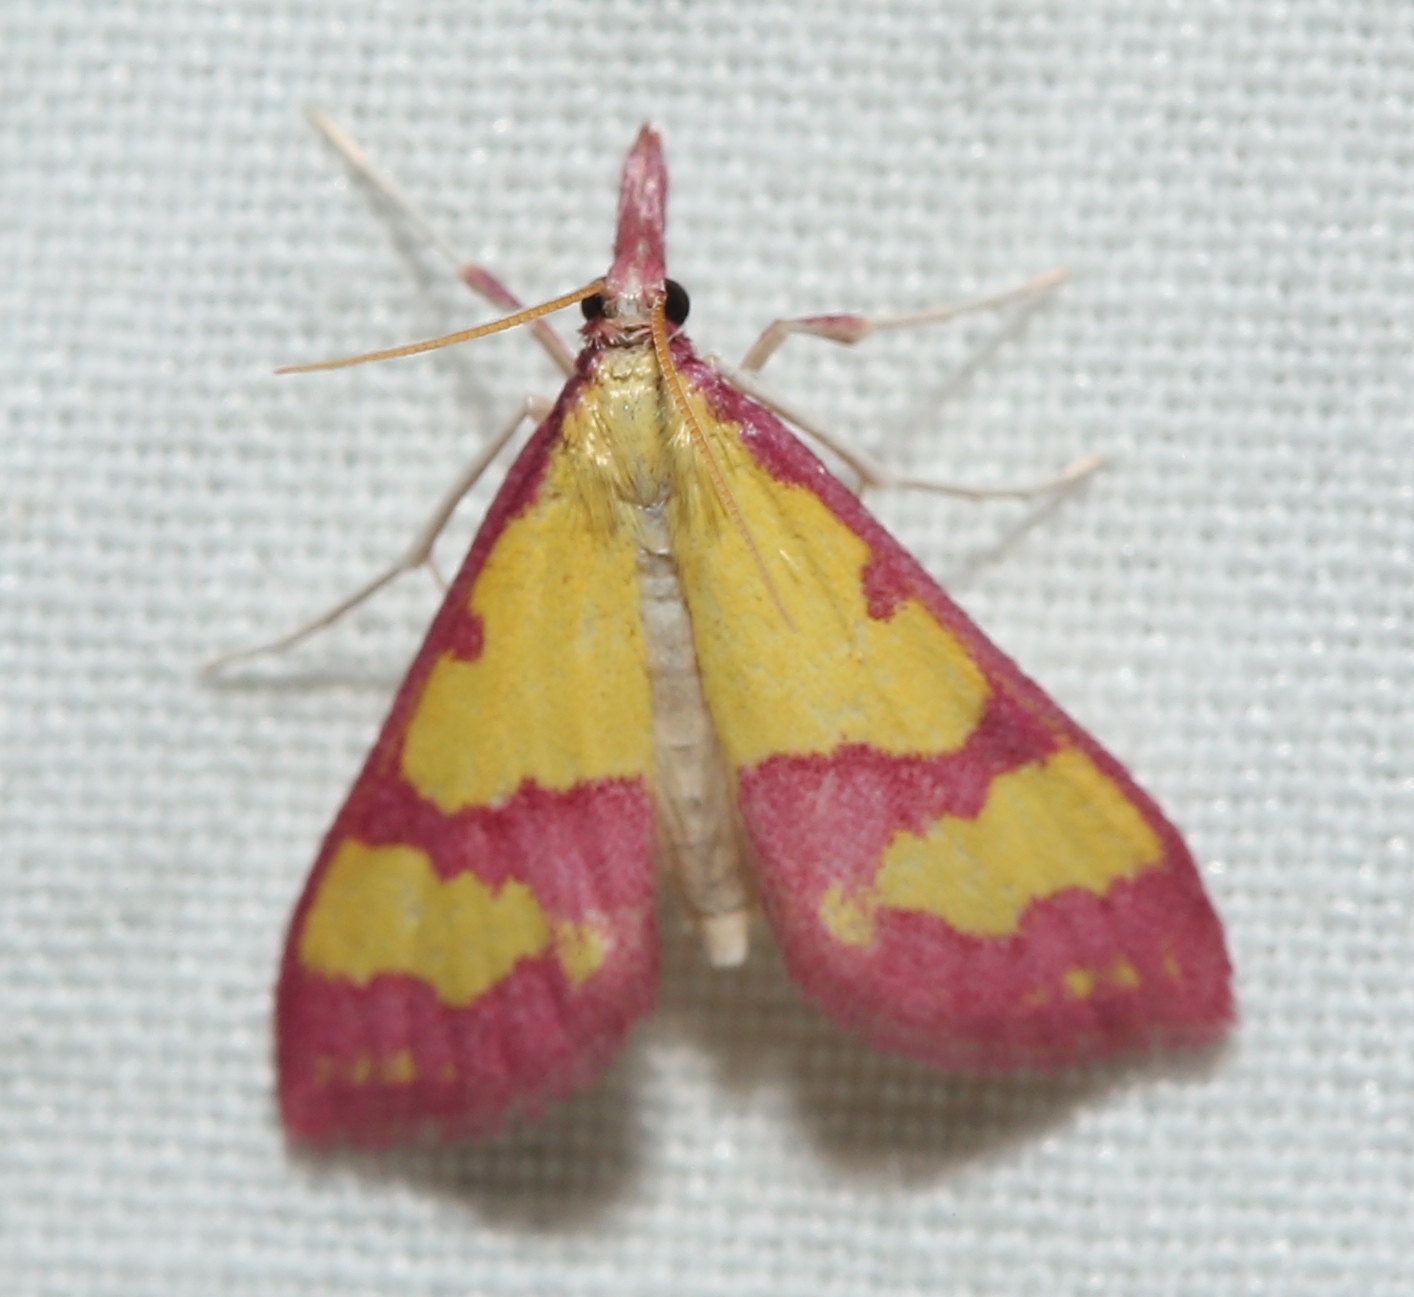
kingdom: Animalia
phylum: Arthropoda
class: Insecta
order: Lepidoptera
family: Crambidae
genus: Choristostigma
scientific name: Choristostigma roseopennalis
